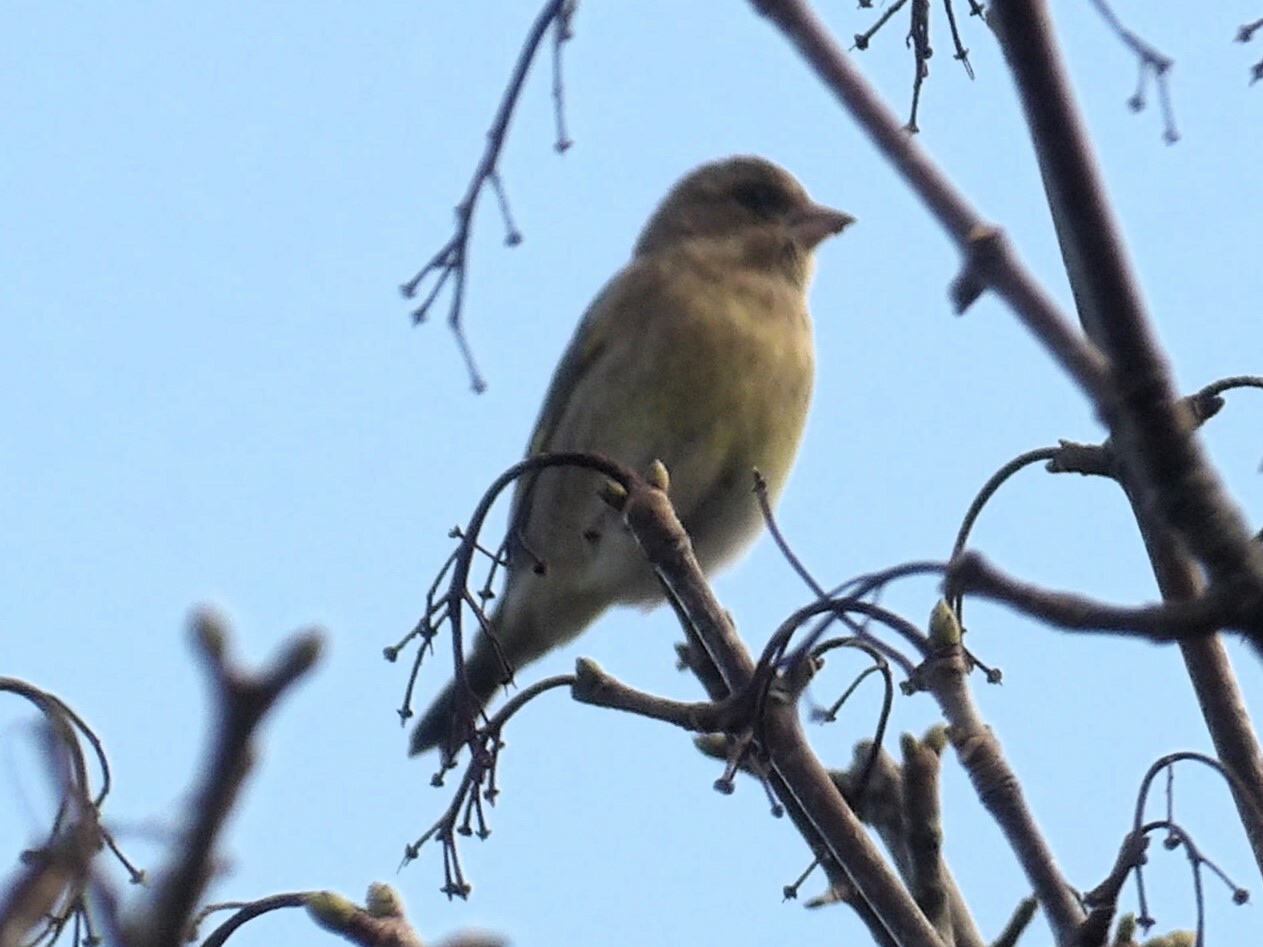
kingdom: Plantae
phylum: Tracheophyta
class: Liliopsida
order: Poales
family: Poaceae
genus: Chloris
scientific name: Chloris chloris
